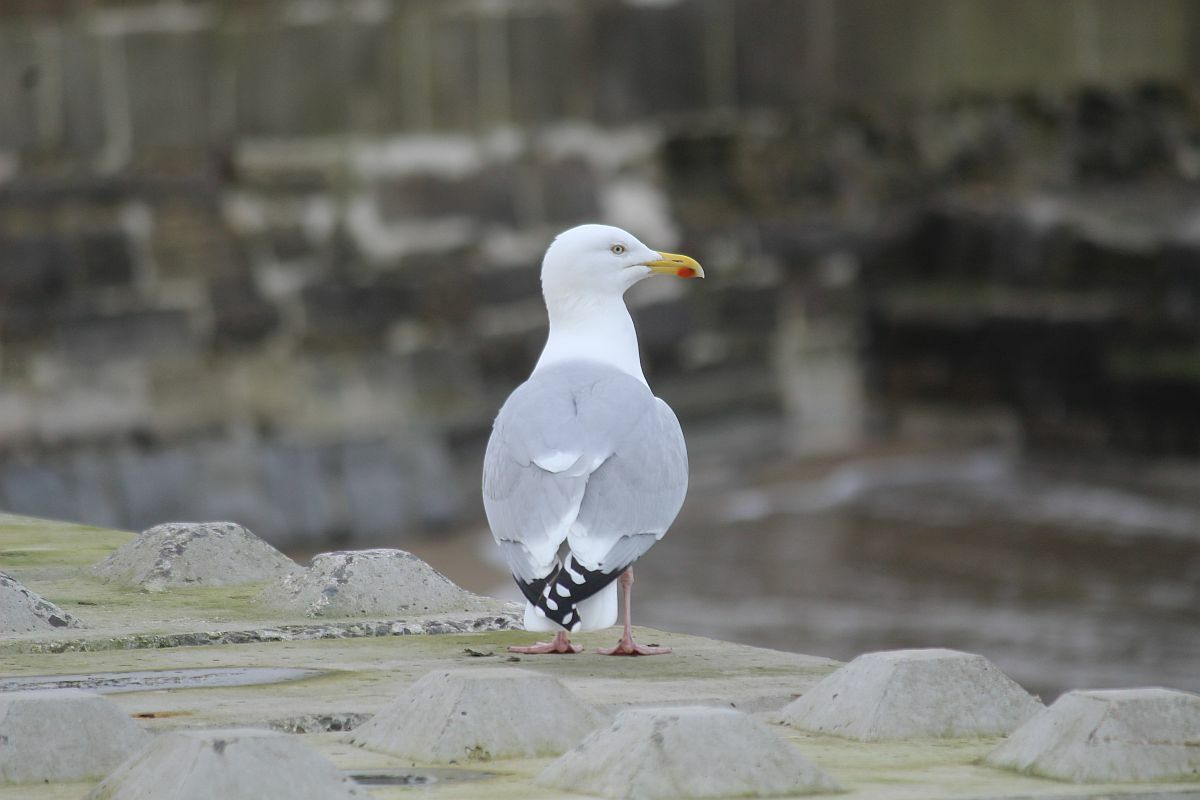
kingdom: Animalia
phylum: Chordata
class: Aves
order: Charadriiformes
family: Laridae
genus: Larus
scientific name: Larus argentatus
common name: Herring gull
